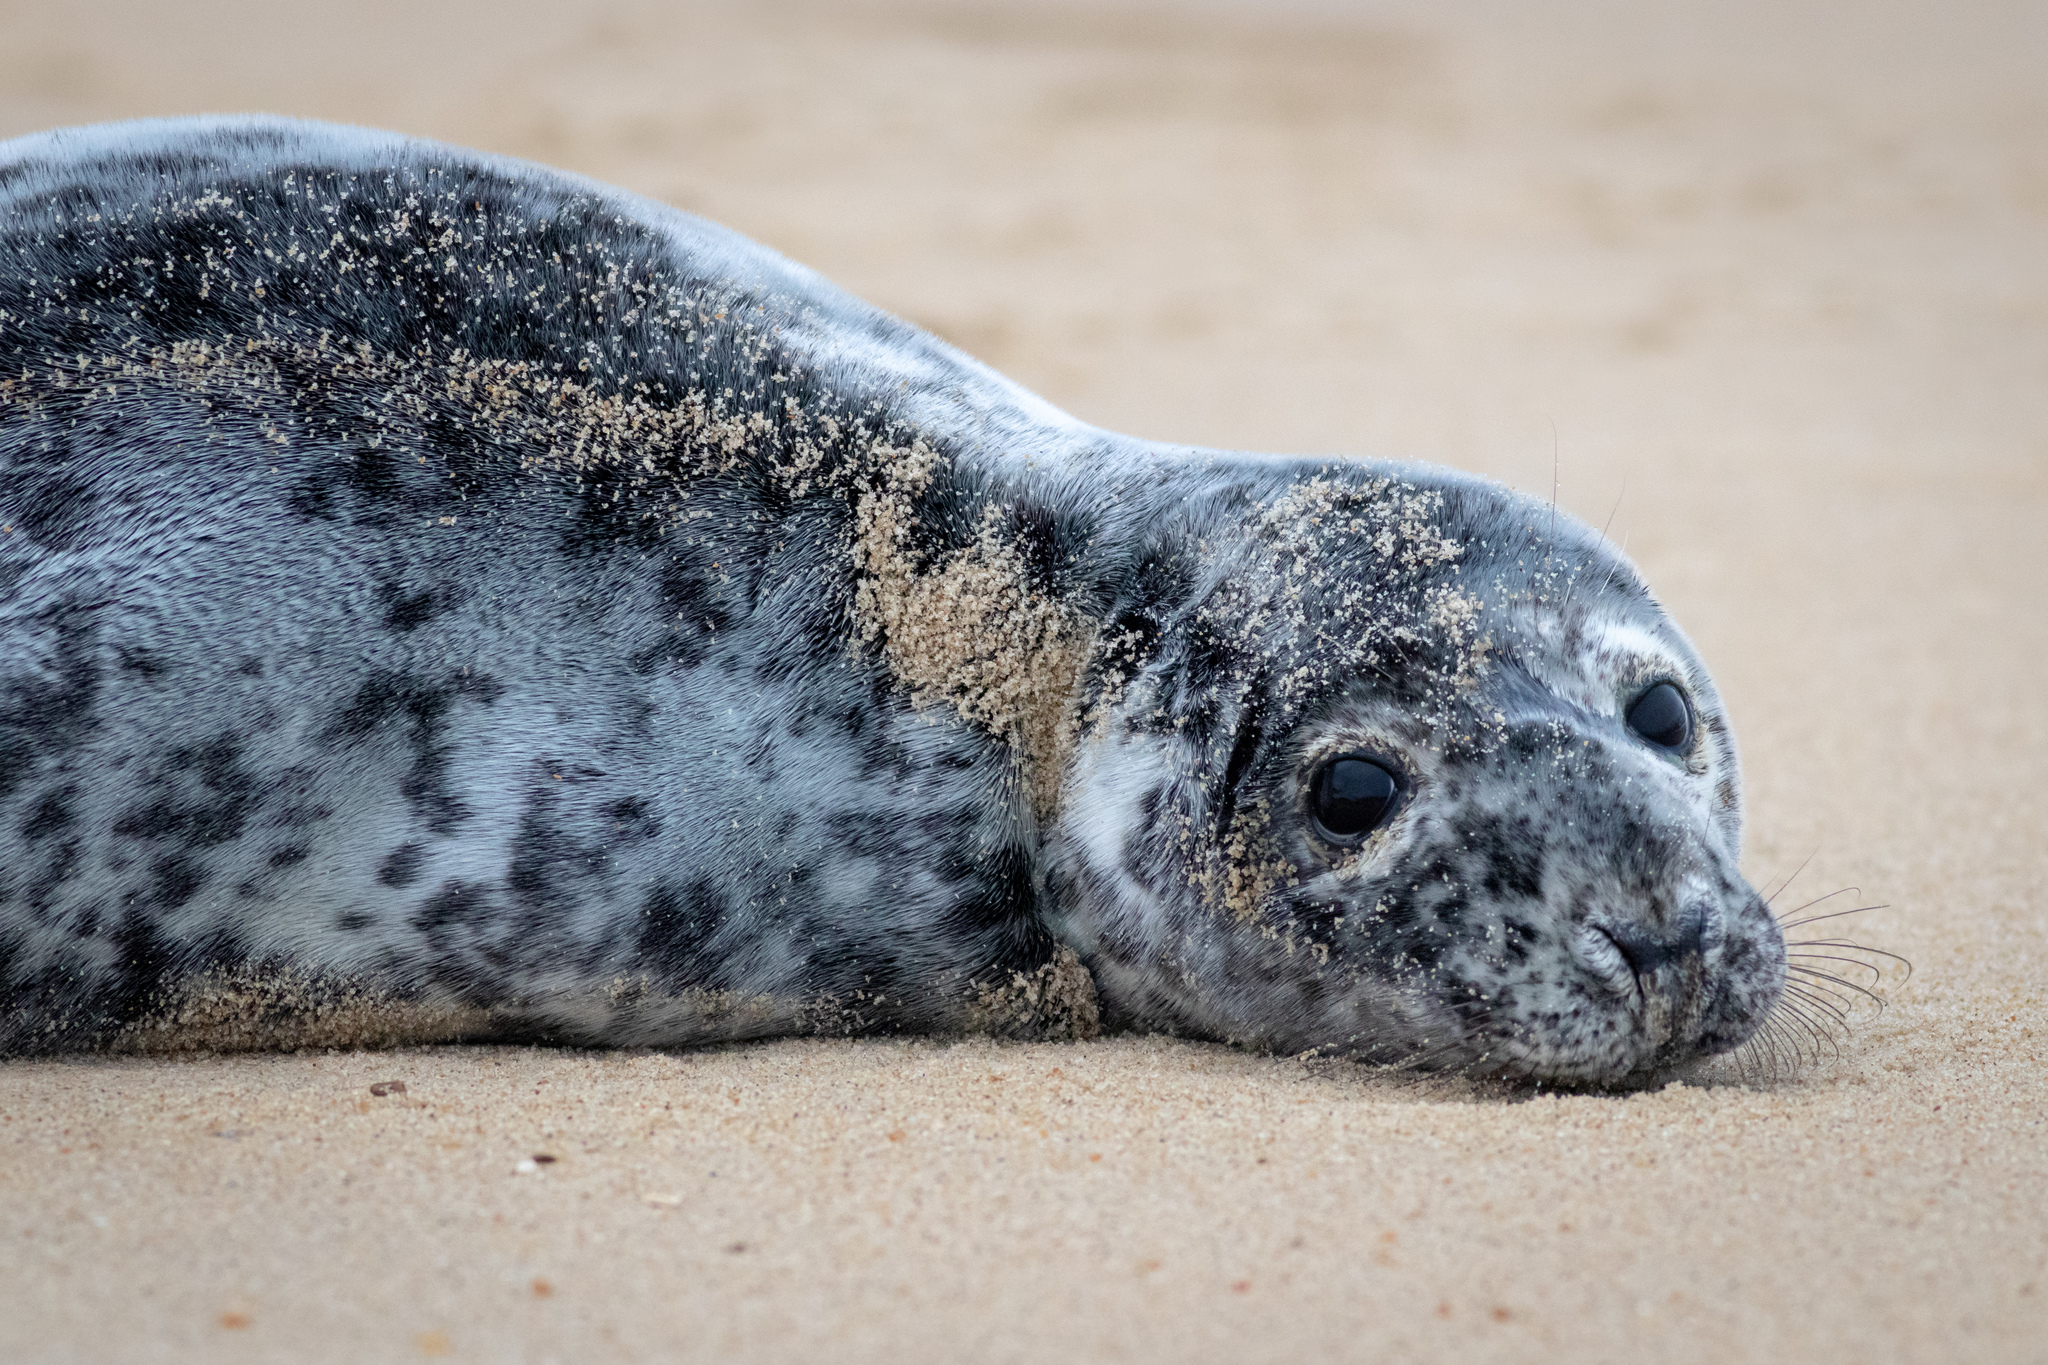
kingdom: Animalia
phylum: Chordata
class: Mammalia
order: Carnivora
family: Phocidae
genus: Halichoerus
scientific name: Halichoerus grypus
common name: Grey seal
